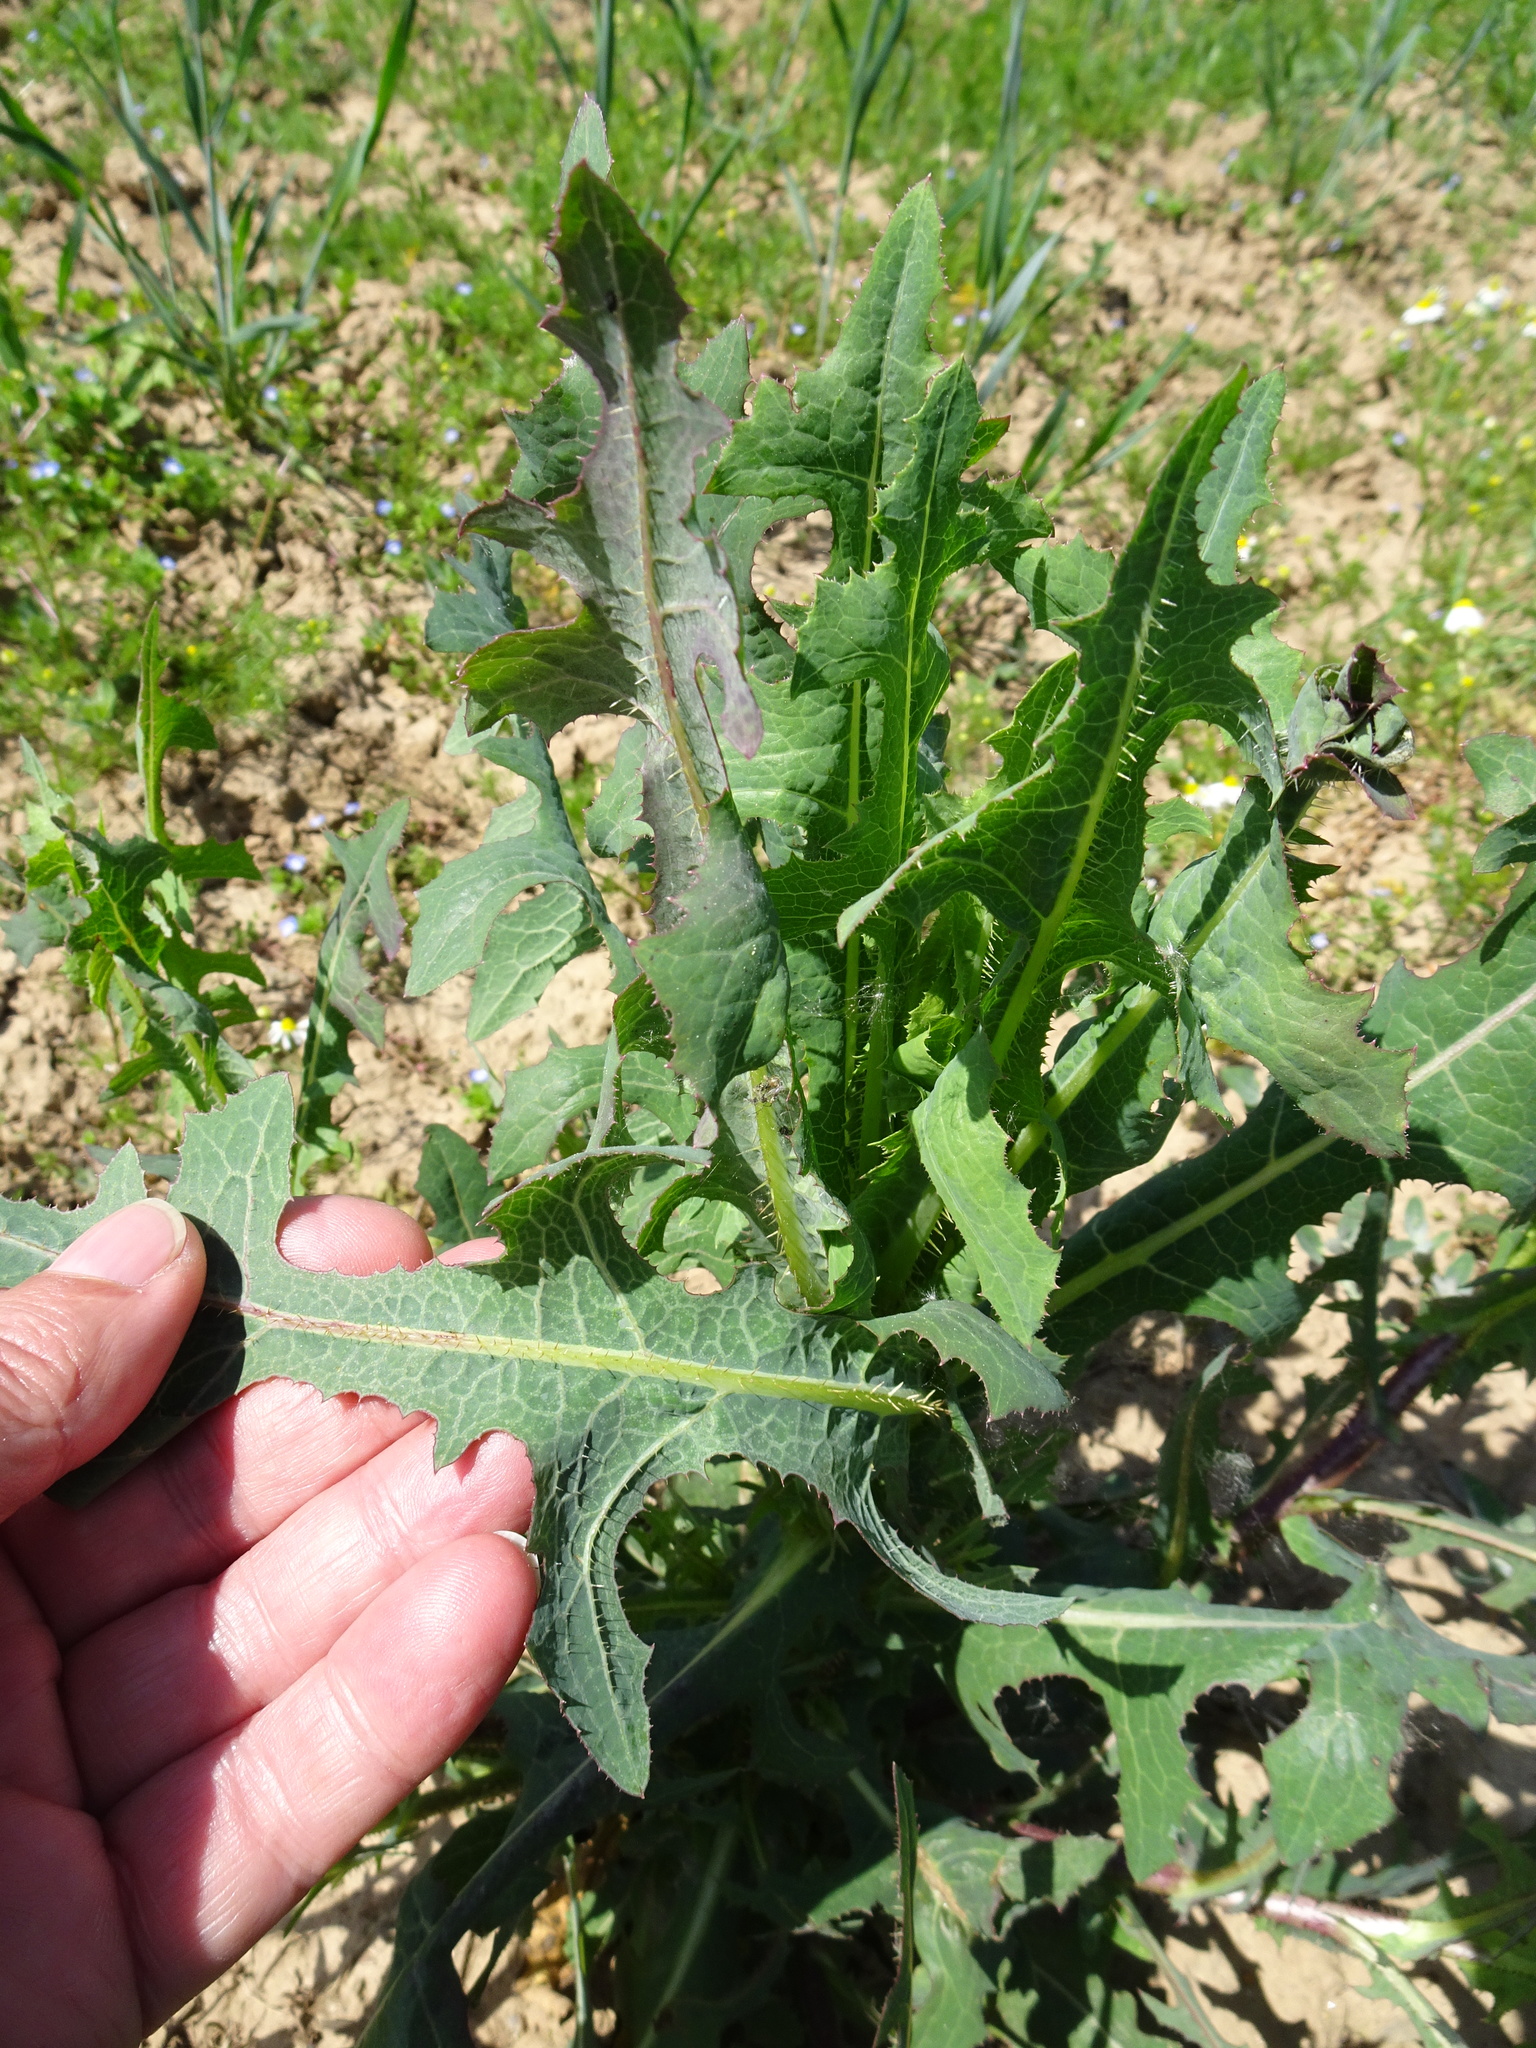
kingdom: Plantae
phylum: Tracheophyta
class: Magnoliopsida
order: Asterales
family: Asteraceae
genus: Lactuca
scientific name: Lactuca serriola
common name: Prickly lettuce
